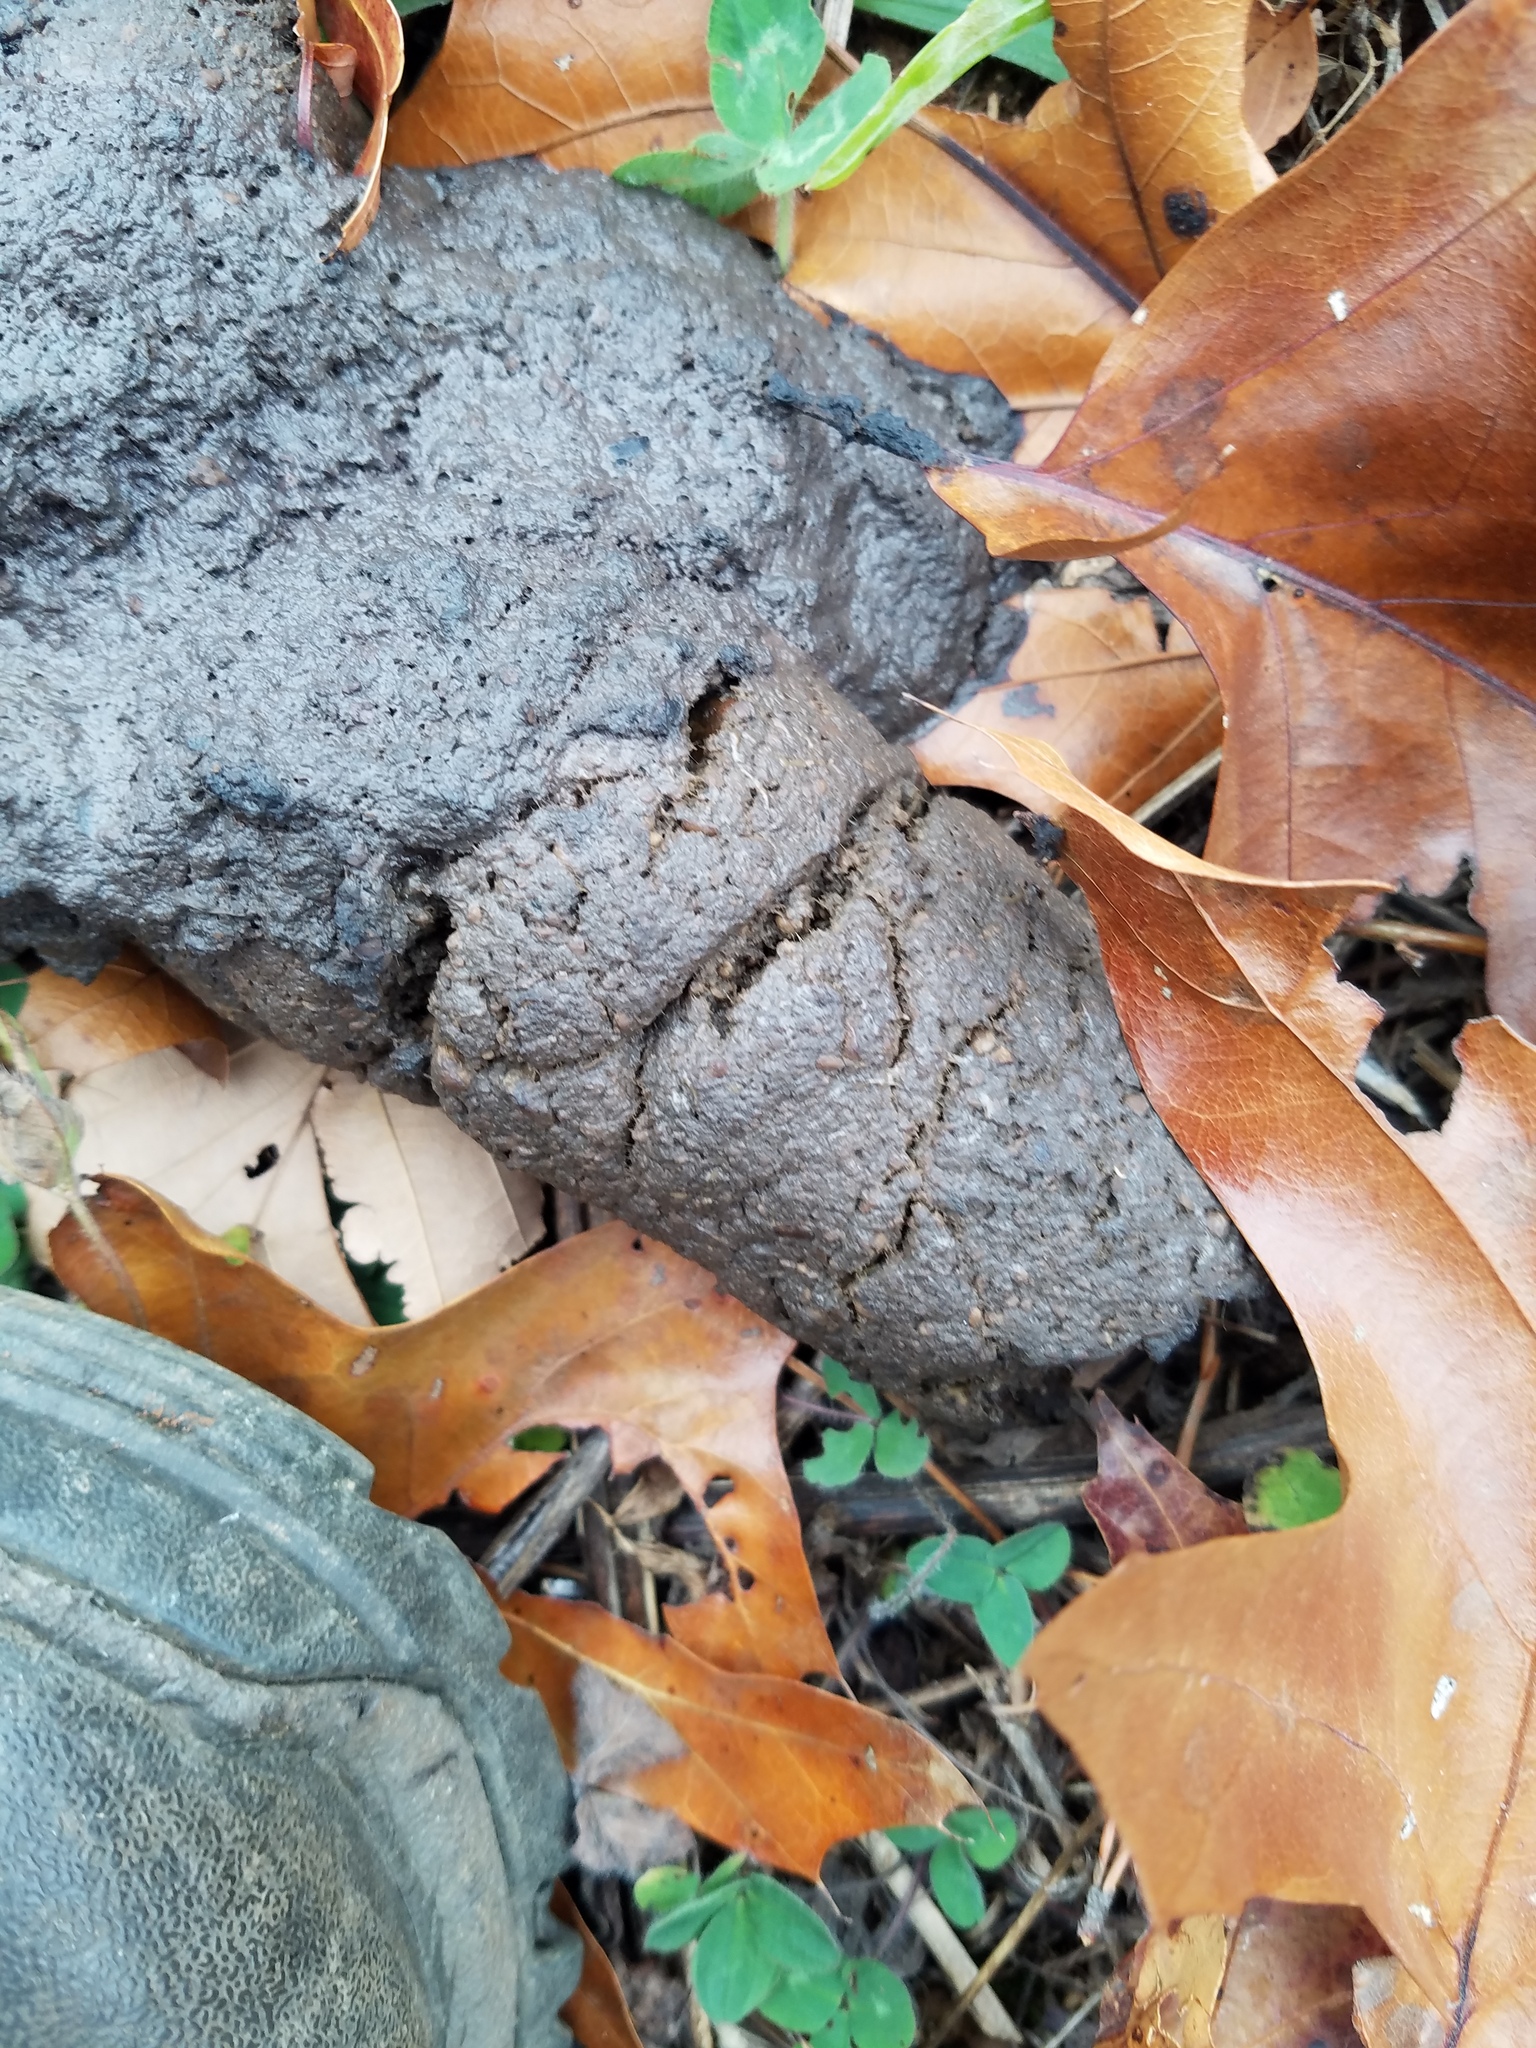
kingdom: Animalia
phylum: Chordata
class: Mammalia
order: Carnivora
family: Ursidae
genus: Ursus
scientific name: Ursus americanus
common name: American black bear
